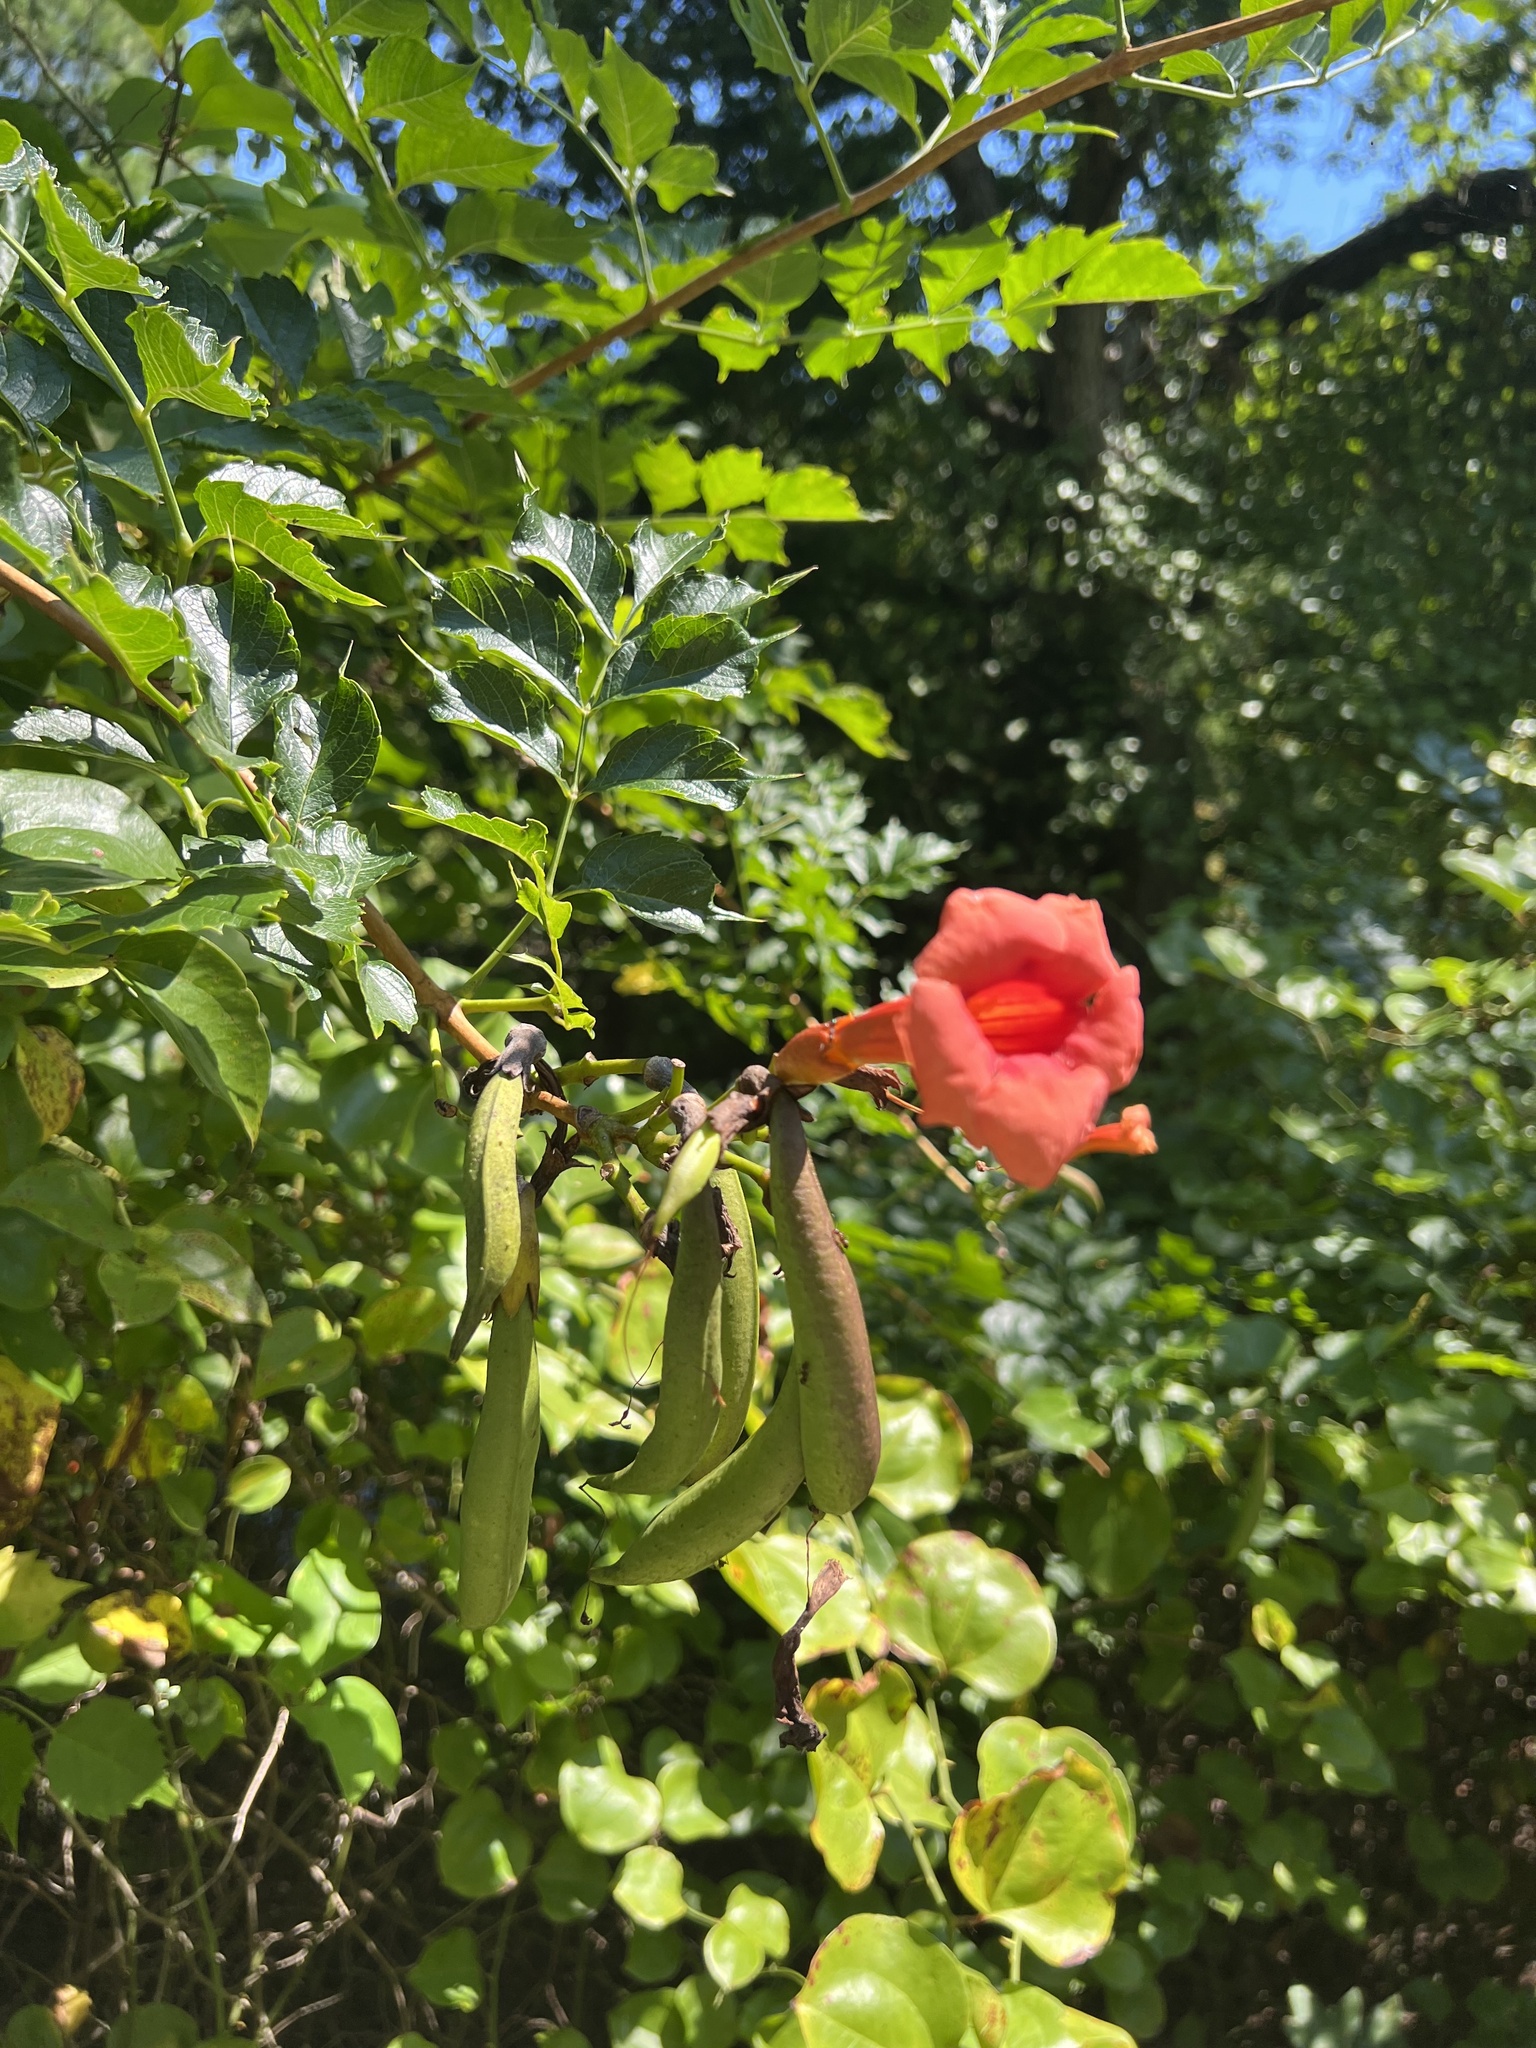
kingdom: Plantae
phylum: Tracheophyta
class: Magnoliopsida
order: Lamiales
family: Bignoniaceae
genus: Campsis
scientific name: Campsis radicans
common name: Trumpet-creeper
